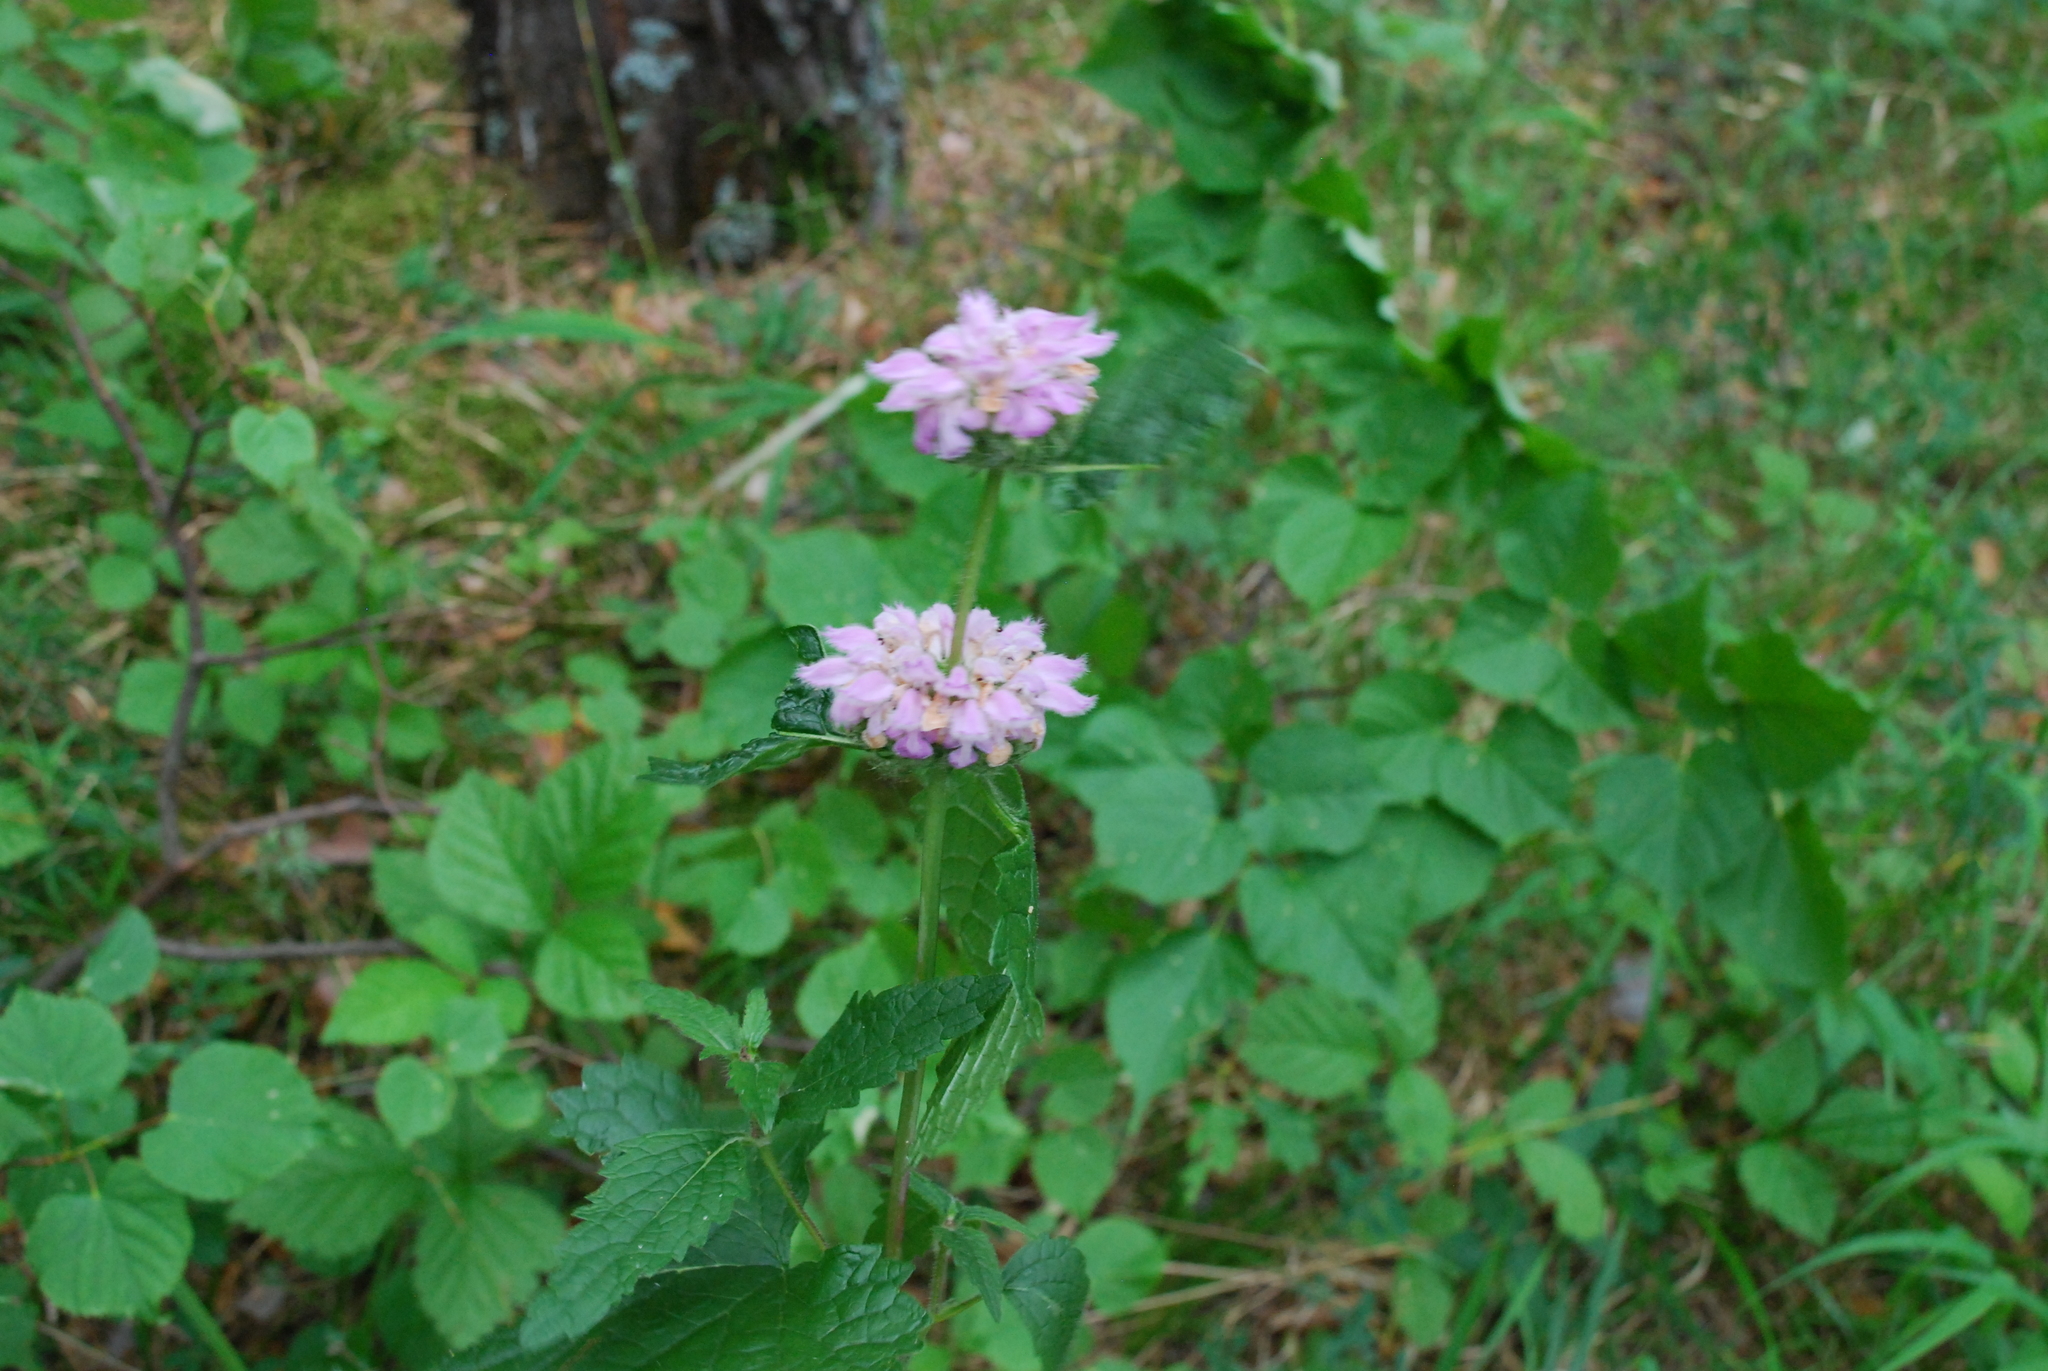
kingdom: Plantae
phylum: Tracheophyta
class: Magnoliopsida
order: Lamiales
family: Lamiaceae
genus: Phlomoides
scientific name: Phlomoides tuberosa
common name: Tuberous jerusalem sage
